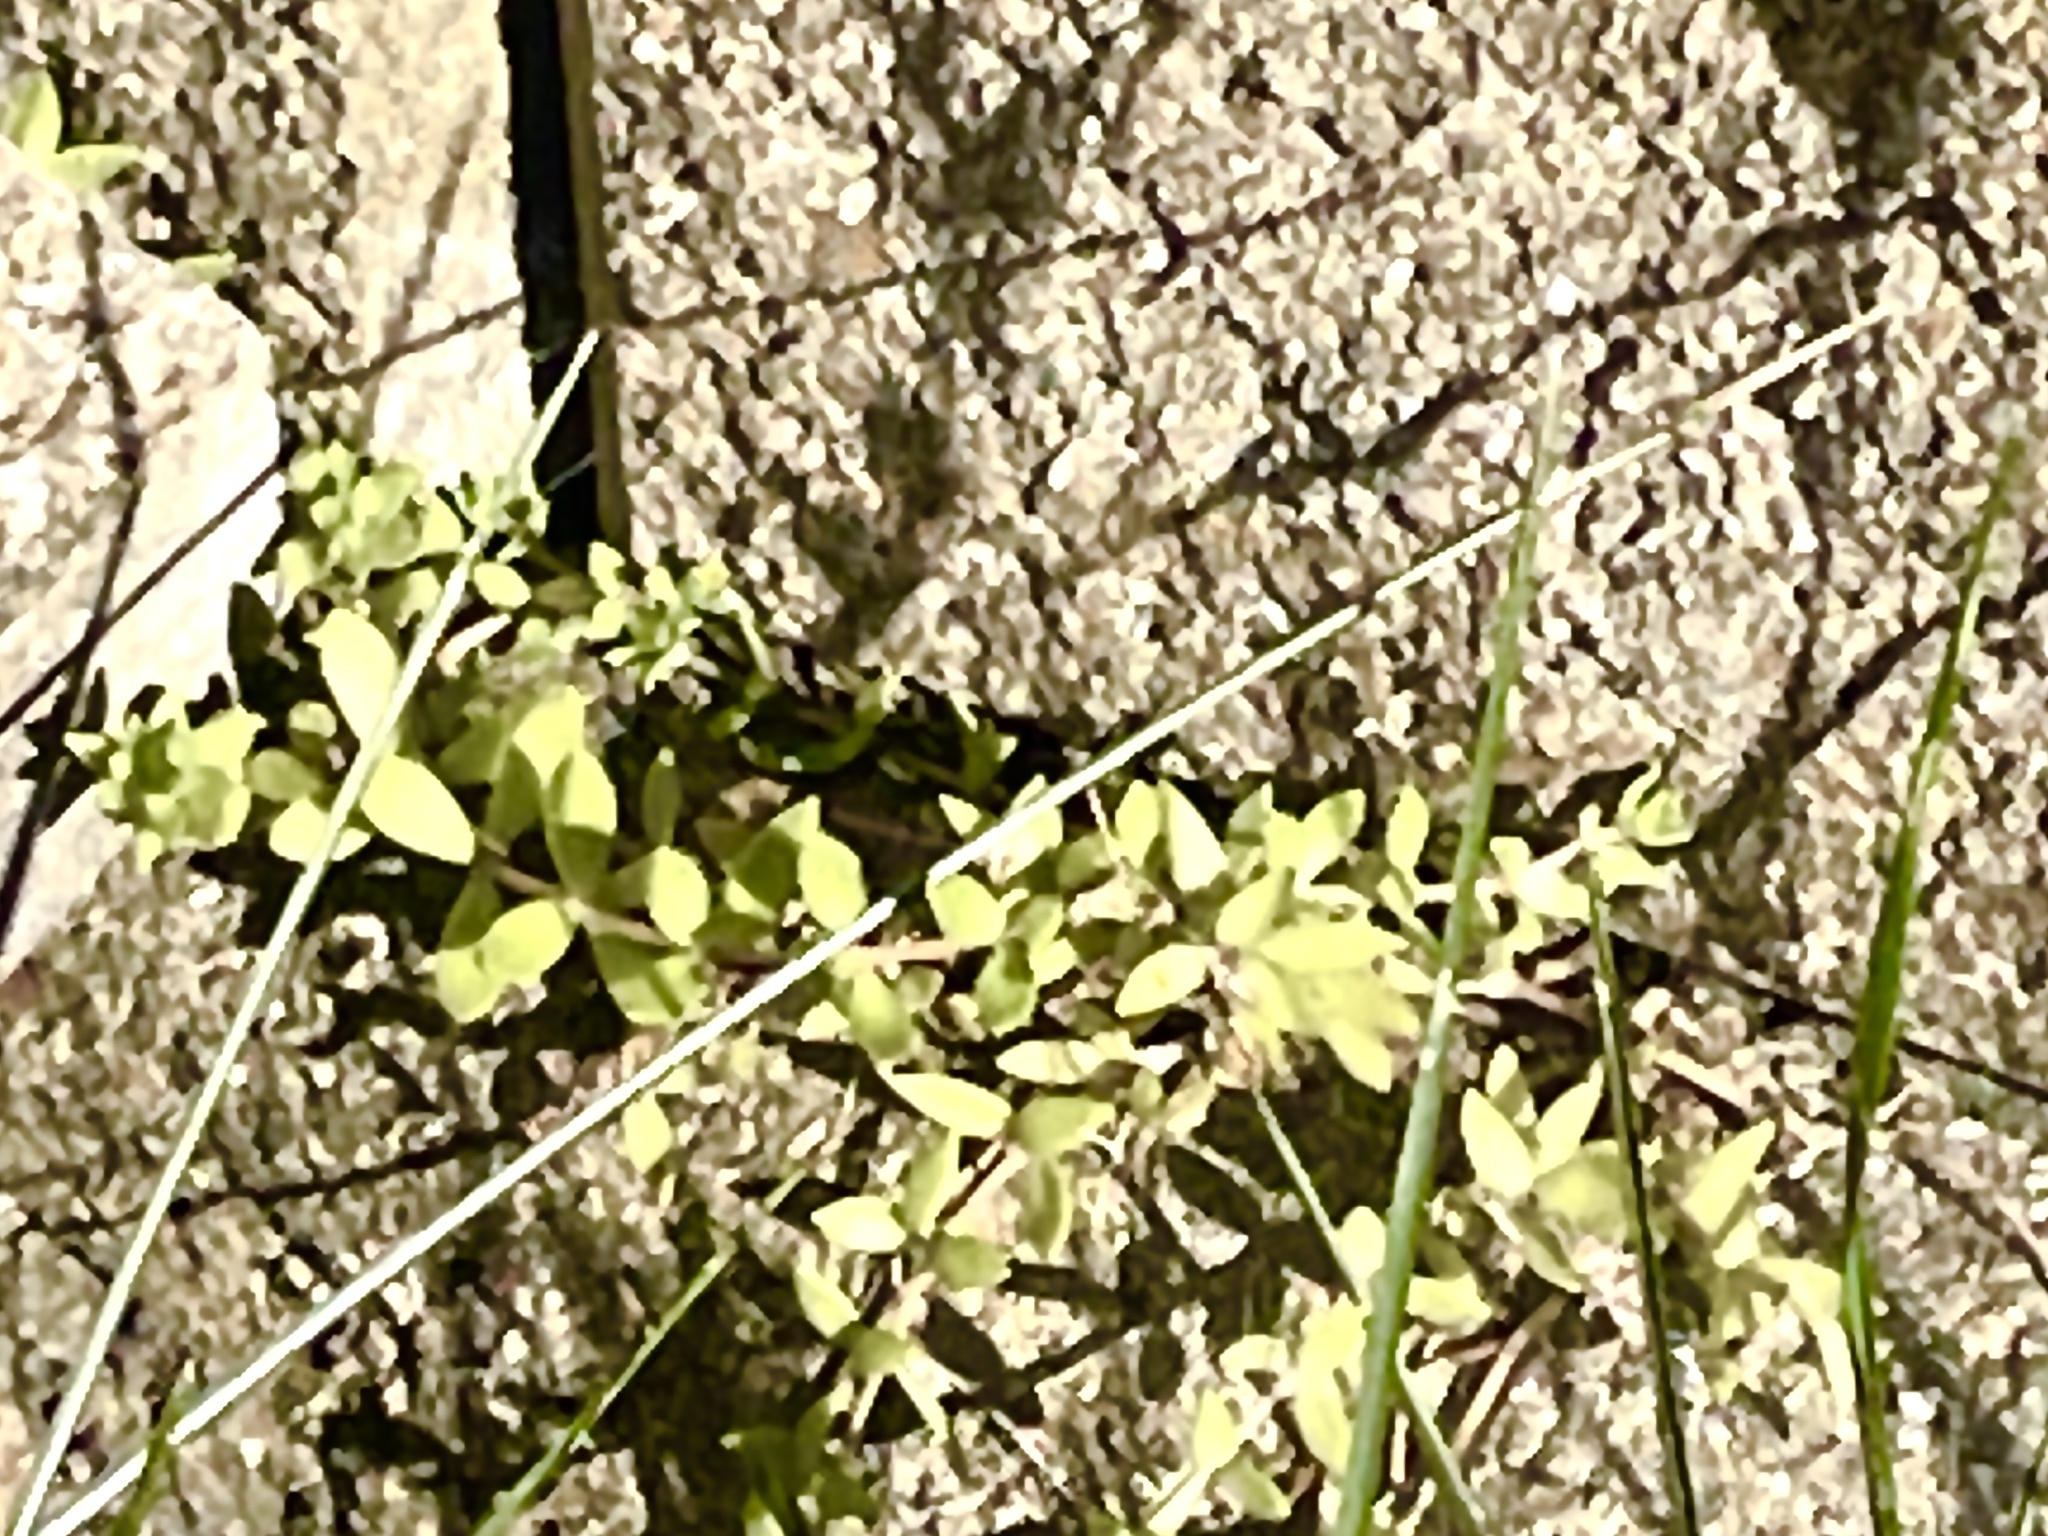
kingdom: Plantae
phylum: Tracheophyta
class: Magnoliopsida
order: Saxifragales
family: Crassulaceae
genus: Sedum
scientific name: Sedum sarmentosum
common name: Stringy stonecrop
